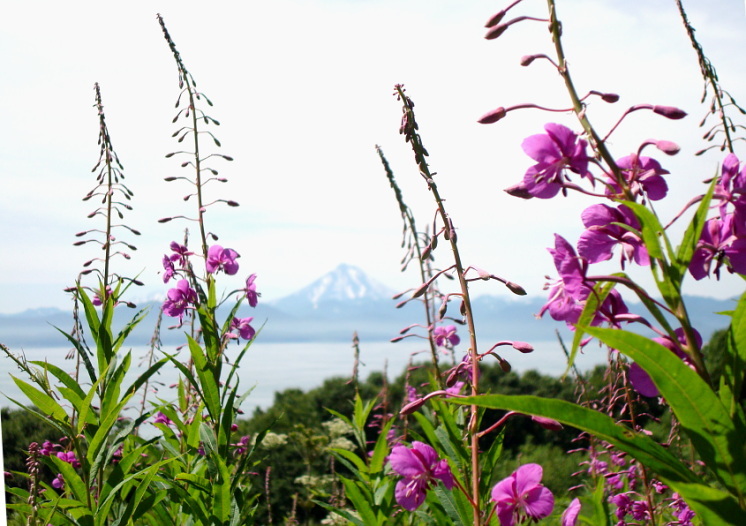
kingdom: Plantae
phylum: Tracheophyta
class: Magnoliopsida
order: Myrtales
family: Onagraceae
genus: Chamaenerion
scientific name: Chamaenerion angustifolium
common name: Fireweed
